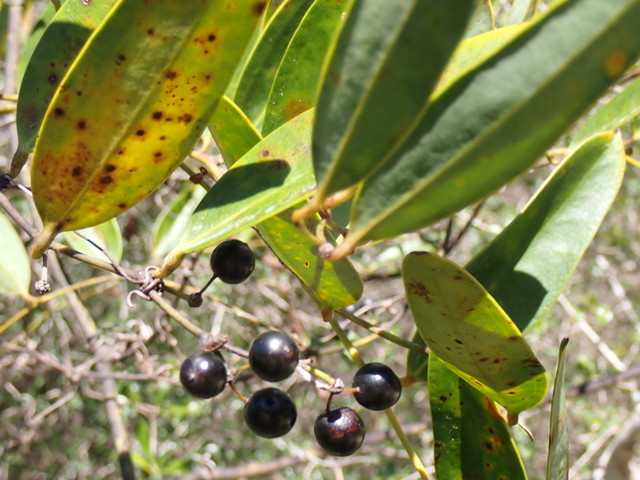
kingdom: Plantae
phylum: Tracheophyta
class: Liliopsida
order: Liliales
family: Smilacaceae
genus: Smilax
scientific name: Smilax laurifolia
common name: Bamboovine
